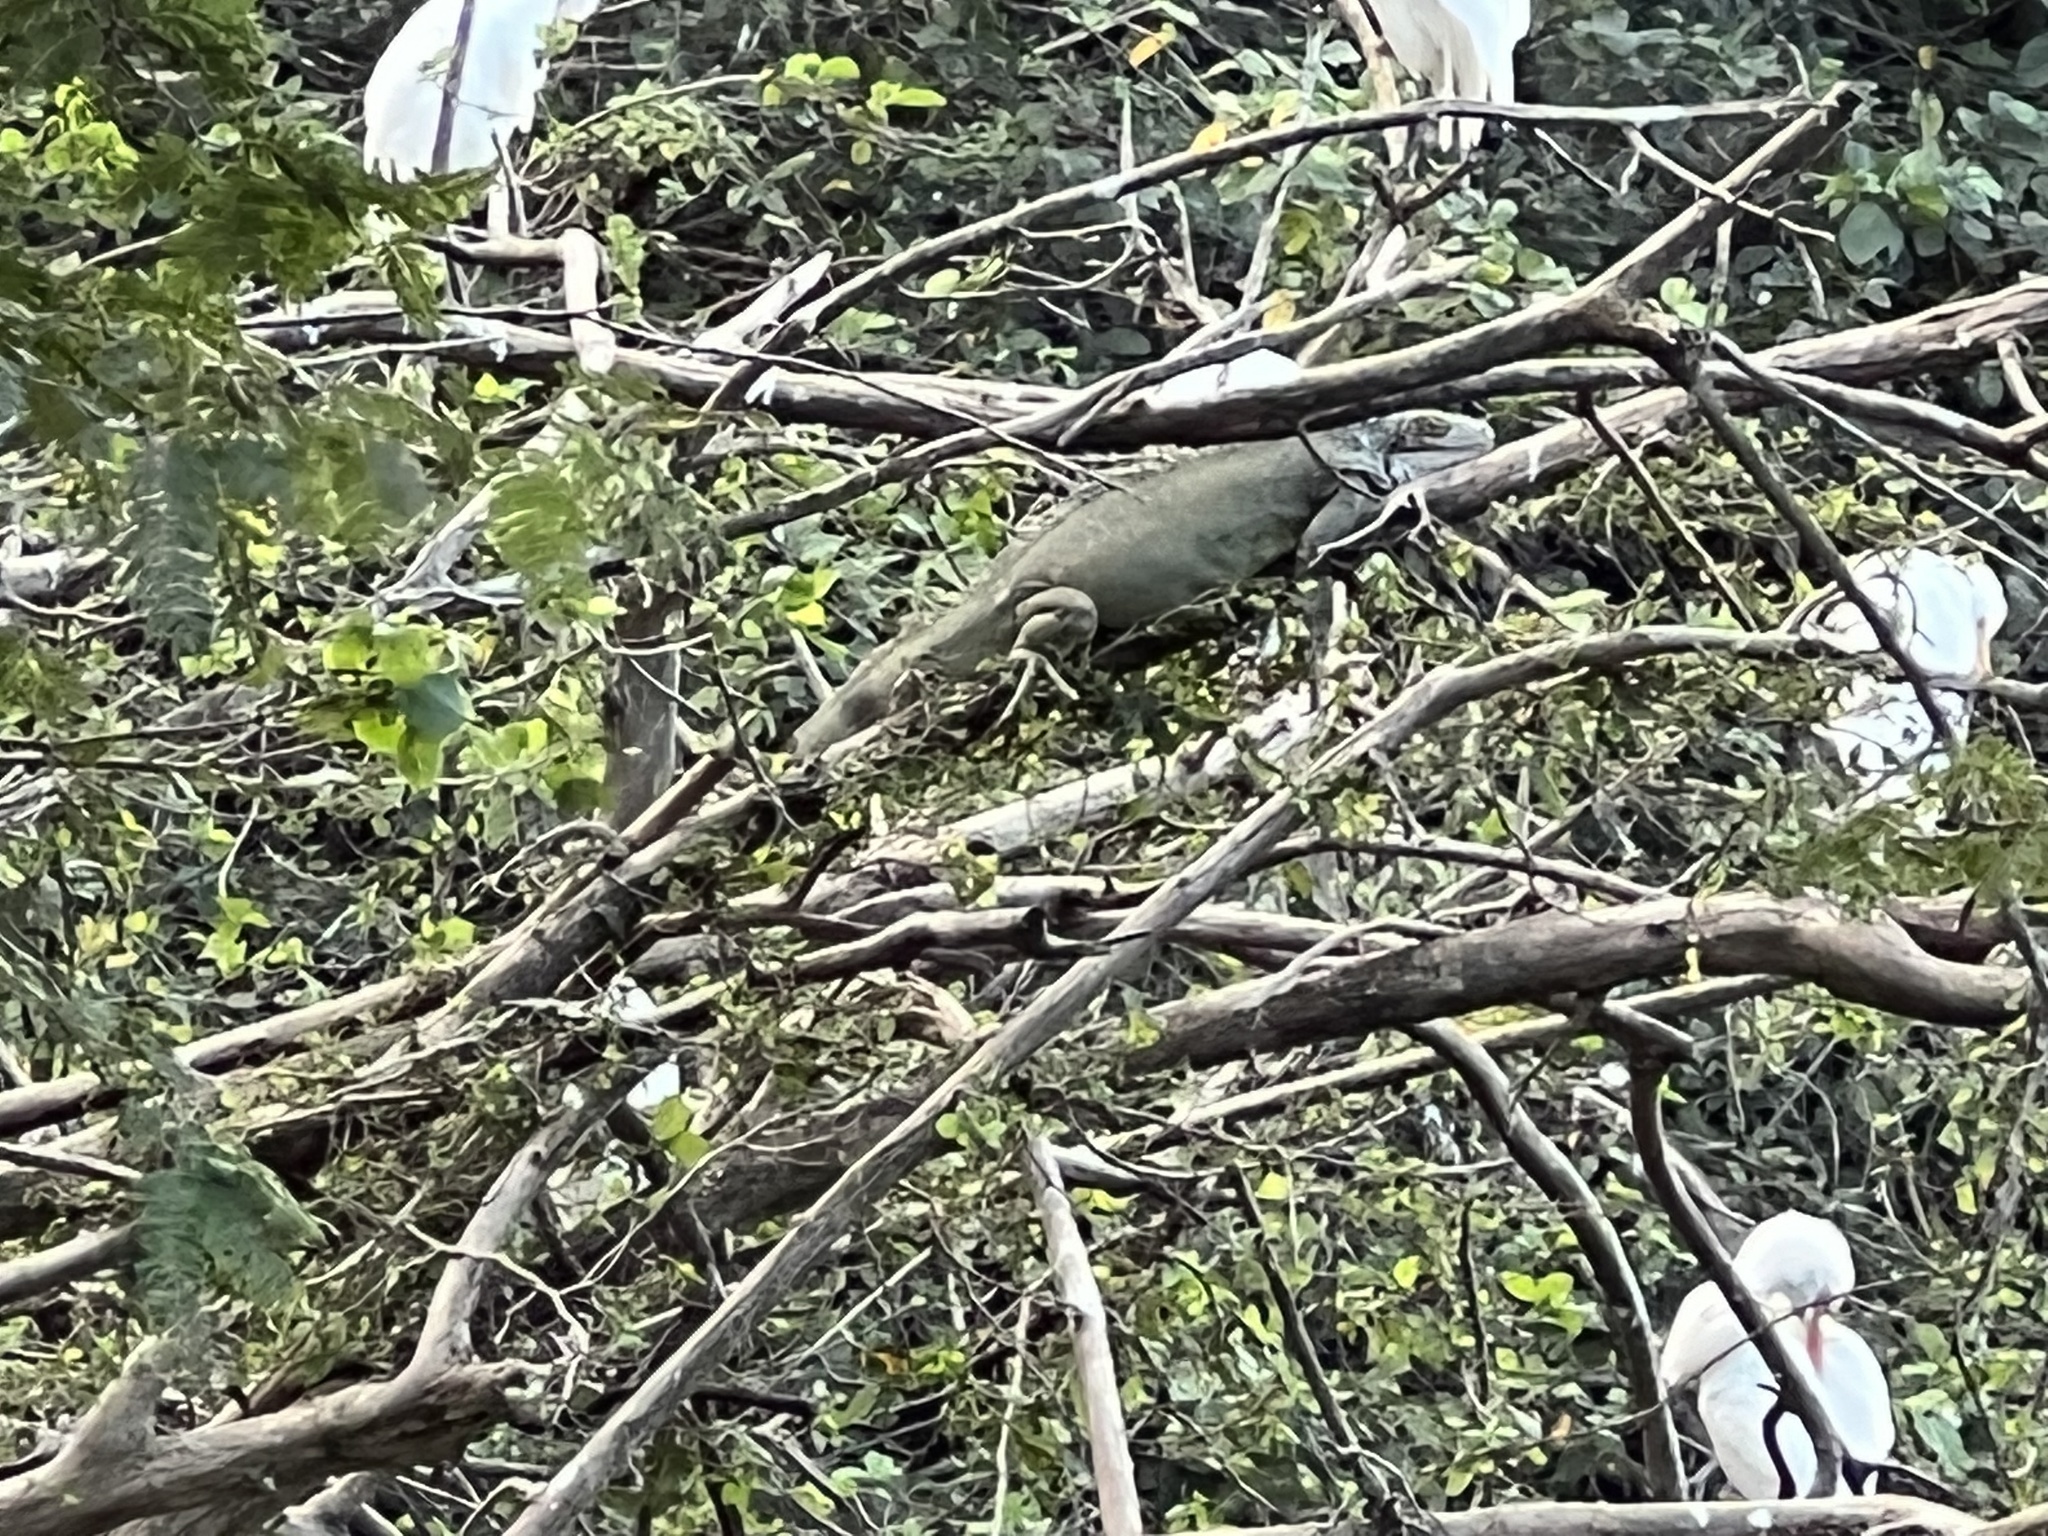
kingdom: Animalia
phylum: Chordata
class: Squamata
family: Iguanidae
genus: Iguana
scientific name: Iguana iguana
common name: Green iguana
